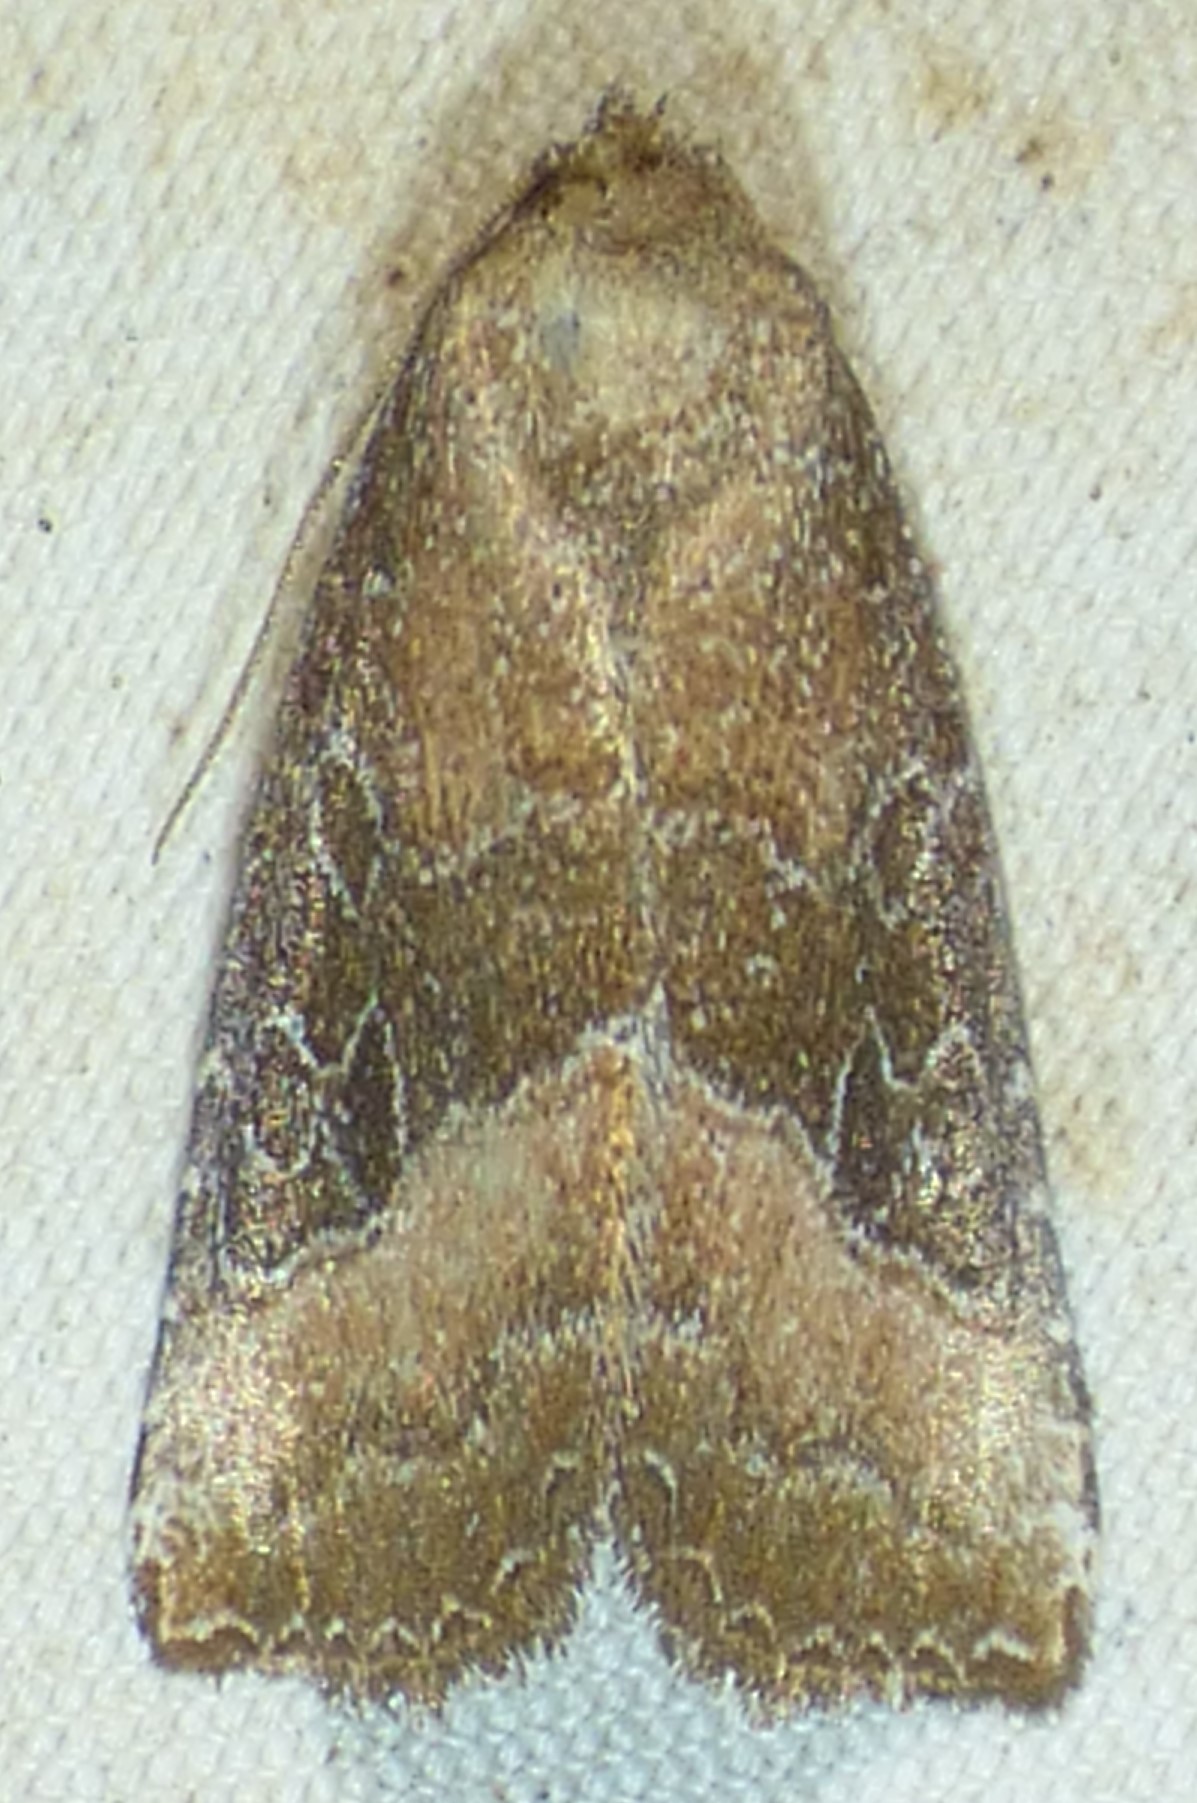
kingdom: Animalia
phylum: Arthropoda
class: Insecta
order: Lepidoptera
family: Noctuidae
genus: Ogdoconta
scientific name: Ogdoconta cinereola
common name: Common pinkband
